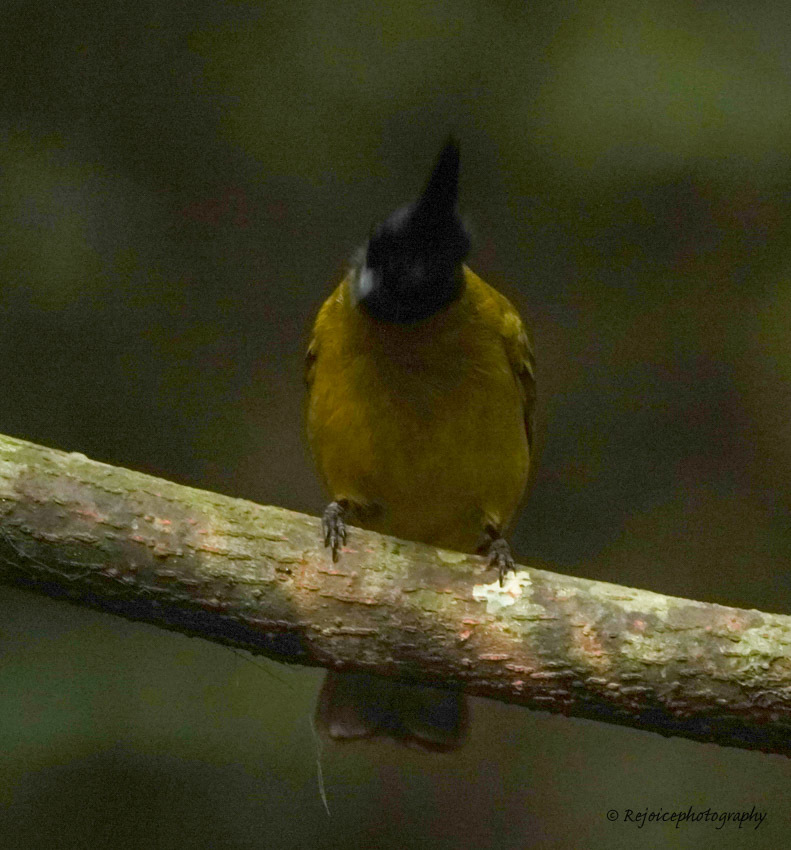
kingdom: Animalia
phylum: Chordata
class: Aves
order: Passeriformes
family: Pycnonotidae
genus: Pycnonotus
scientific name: Pycnonotus flaviventris
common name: Black-crested bulbul
